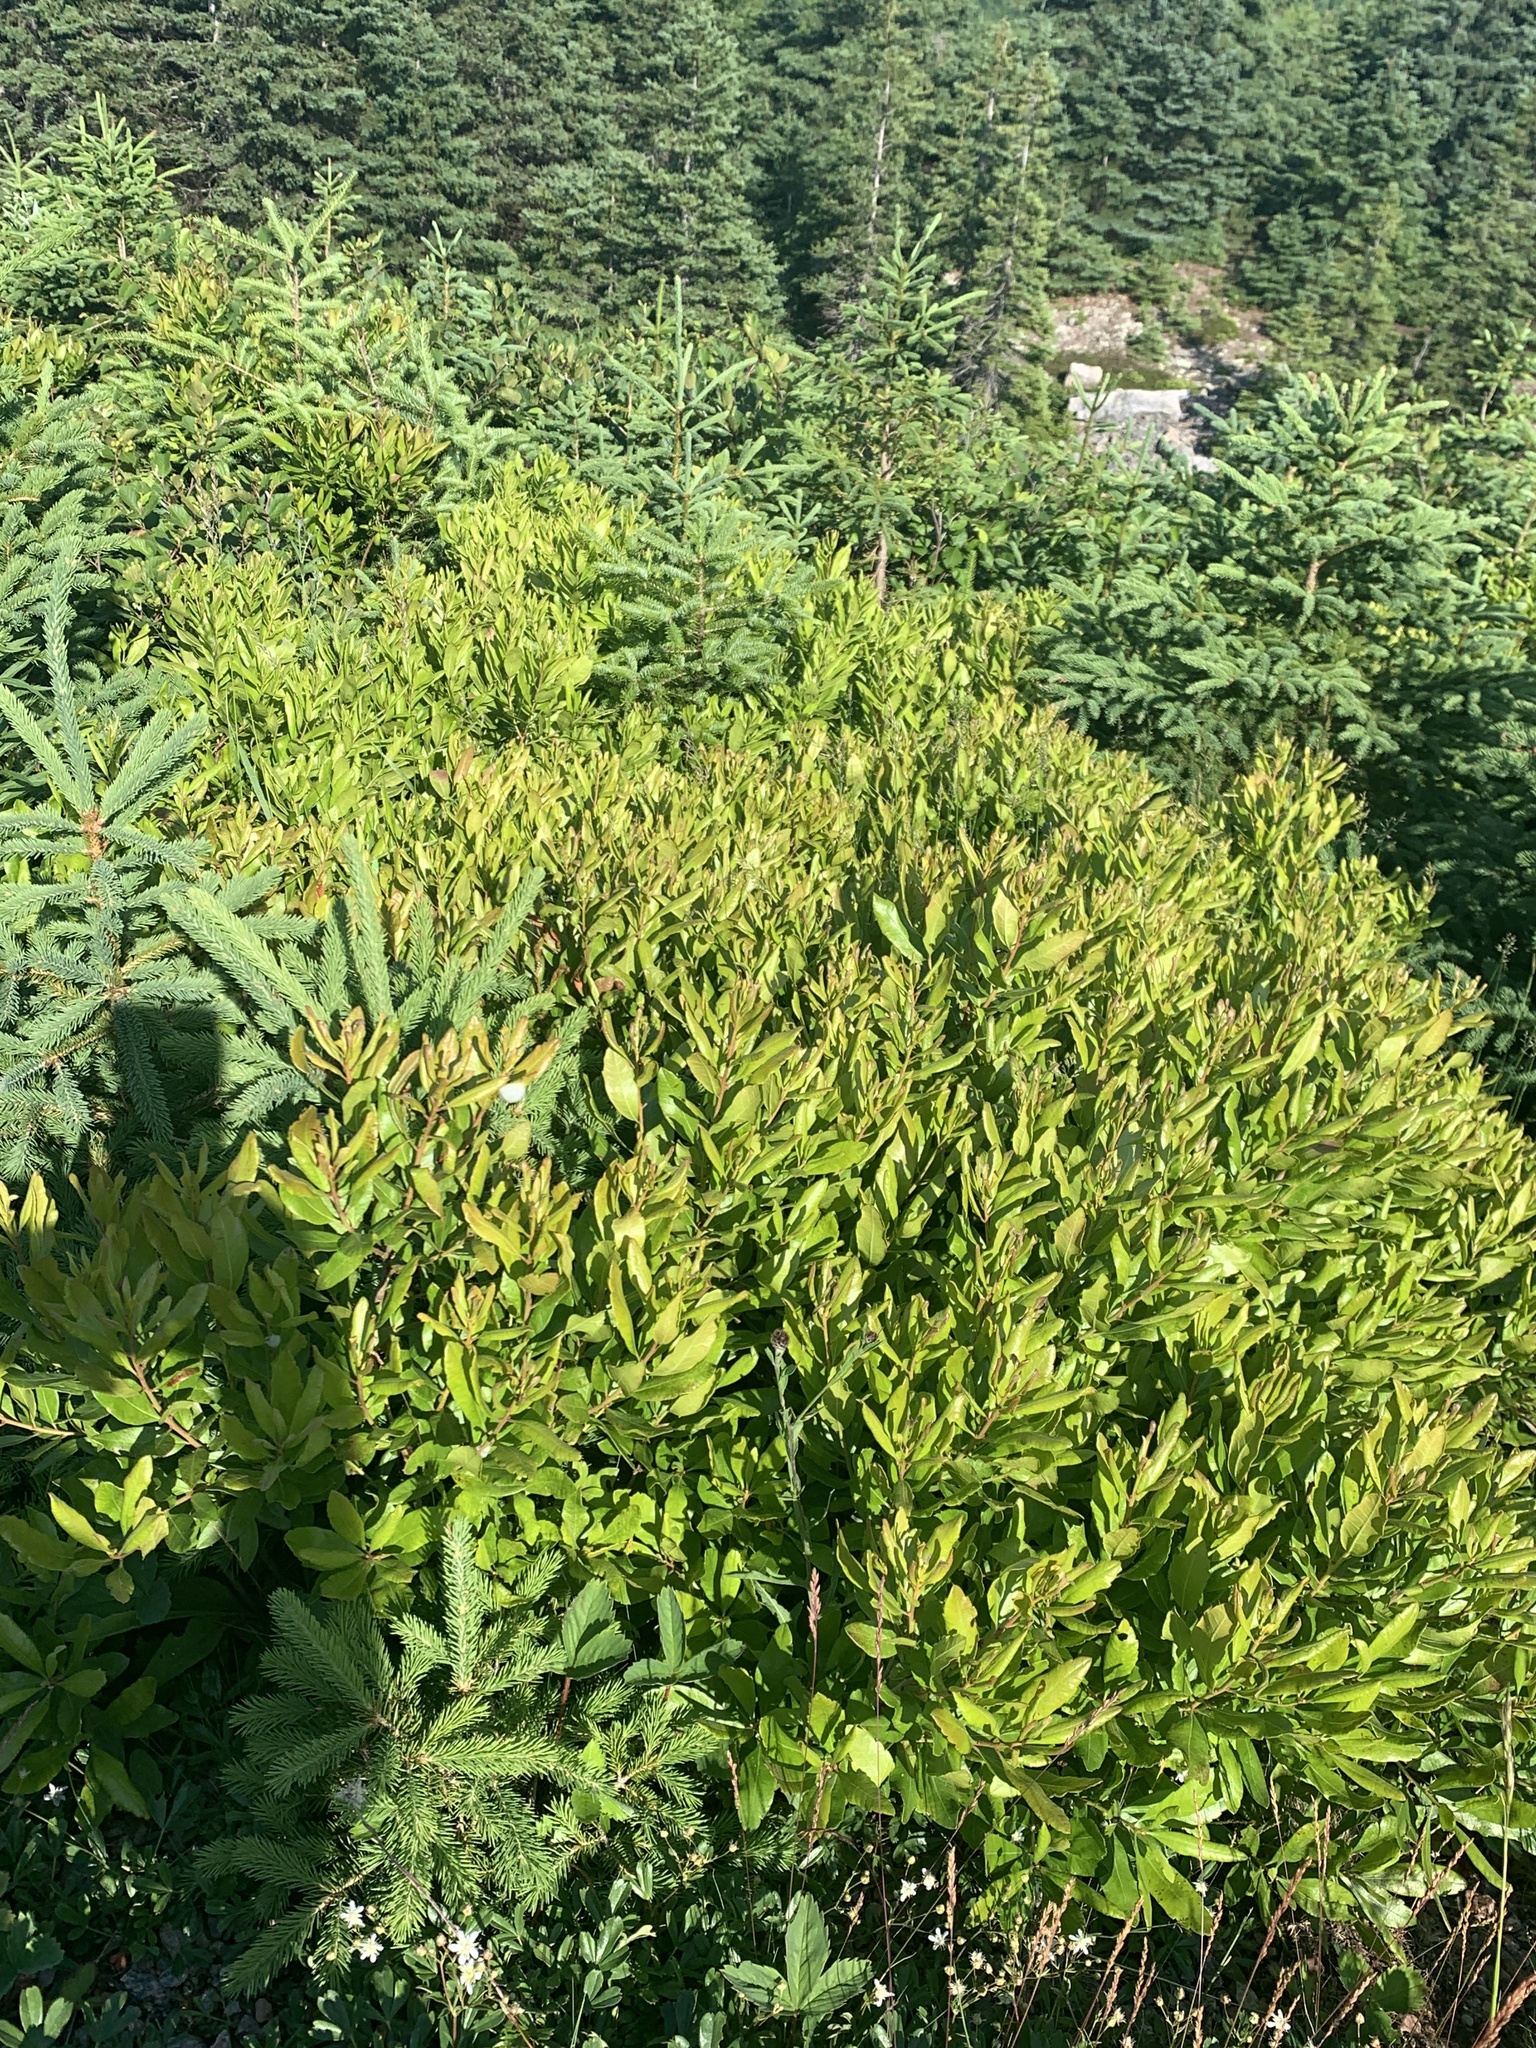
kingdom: Plantae
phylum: Tracheophyta
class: Magnoliopsida
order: Fagales
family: Myricaceae
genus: Morella
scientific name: Morella pensylvanica
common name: Northern bayberry
